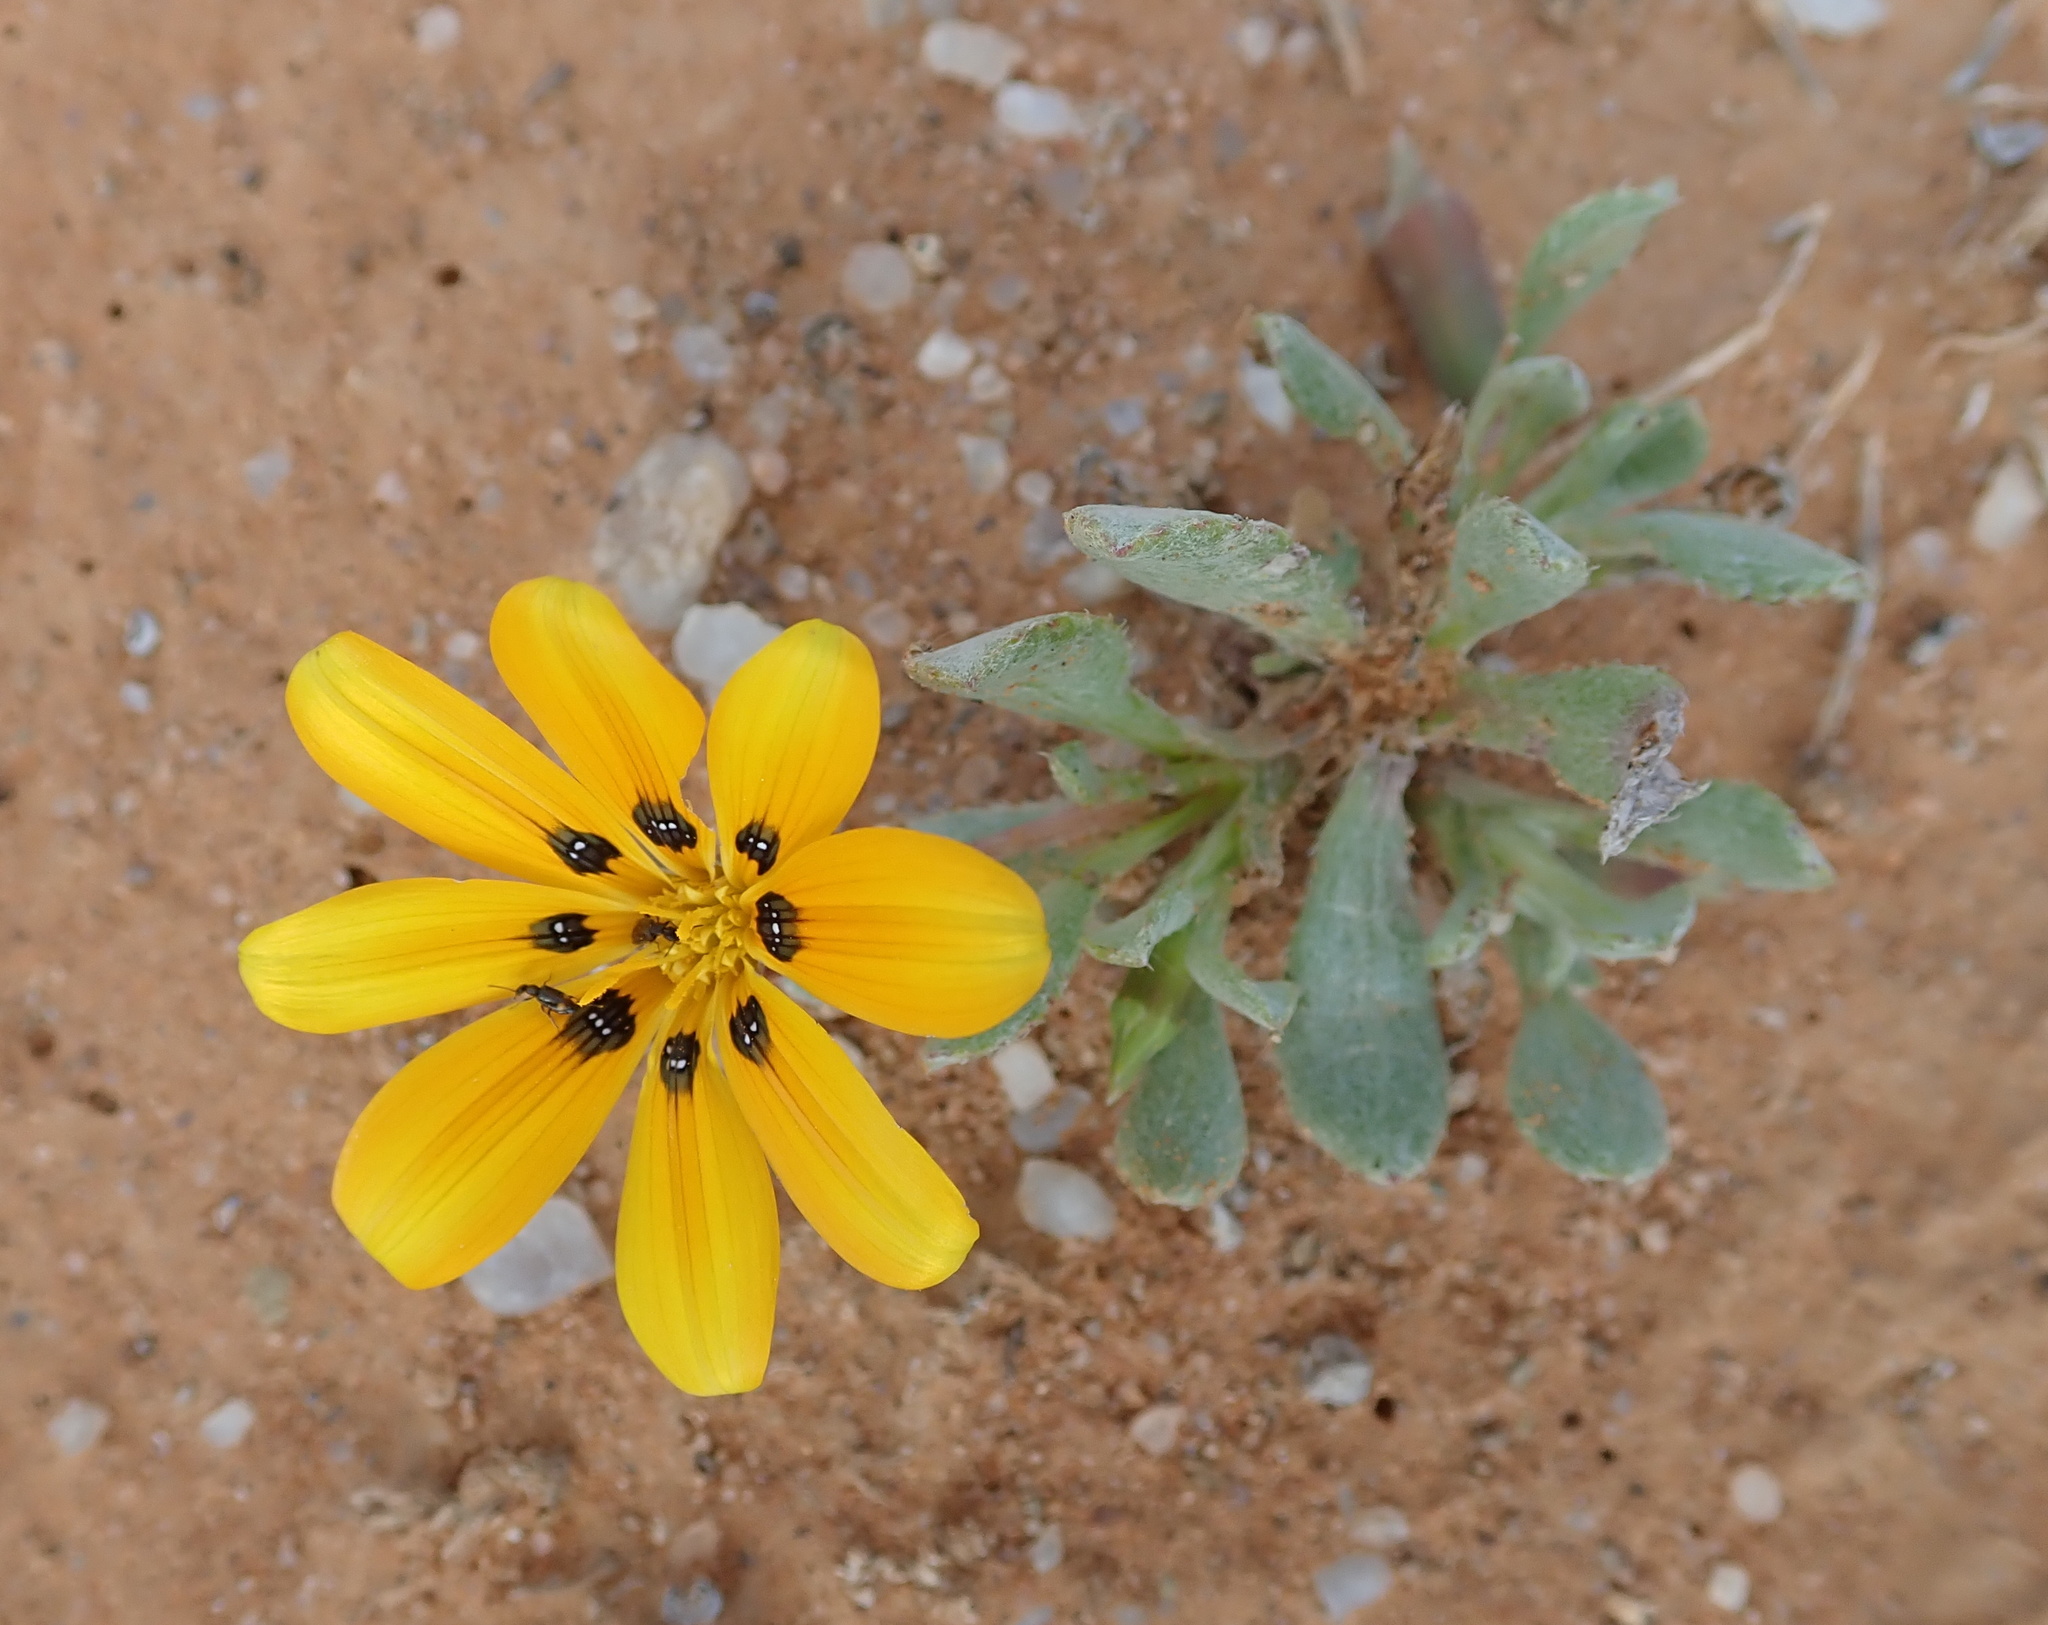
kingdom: Plantae
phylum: Tracheophyta
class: Magnoliopsida
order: Asterales
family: Asteraceae
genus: Gazania
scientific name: Gazania lichtensteinii
